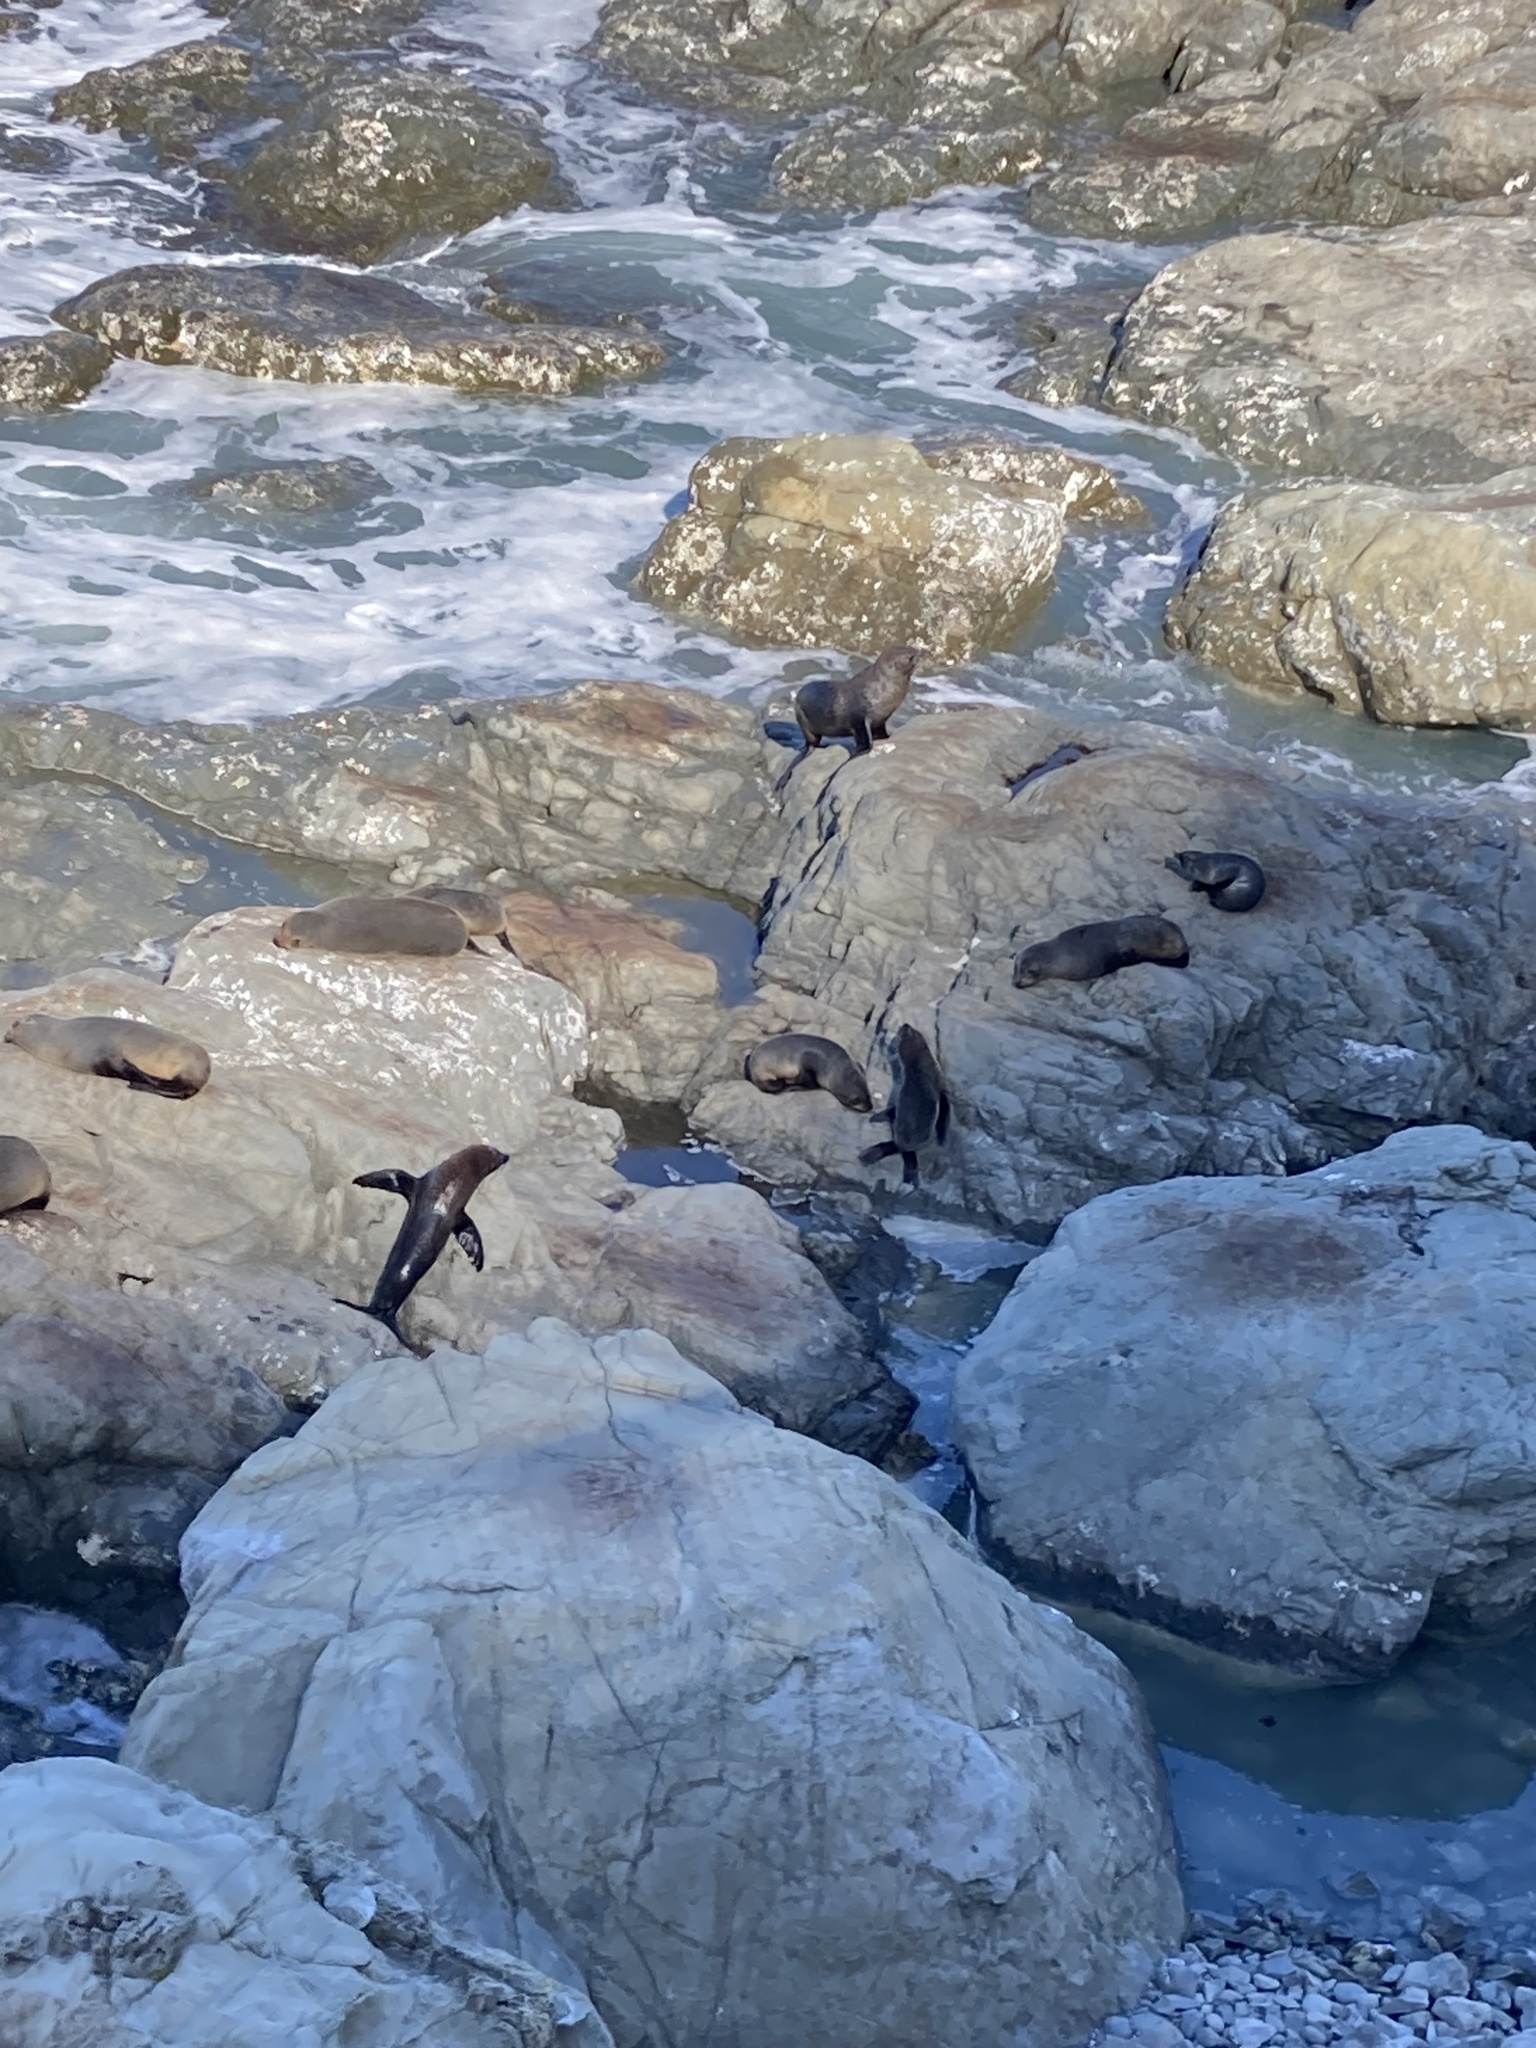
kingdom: Animalia
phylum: Chordata
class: Mammalia
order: Carnivora
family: Otariidae
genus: Arctocephalus
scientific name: Arctocephalus forsteri
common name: New zealand fur seal
